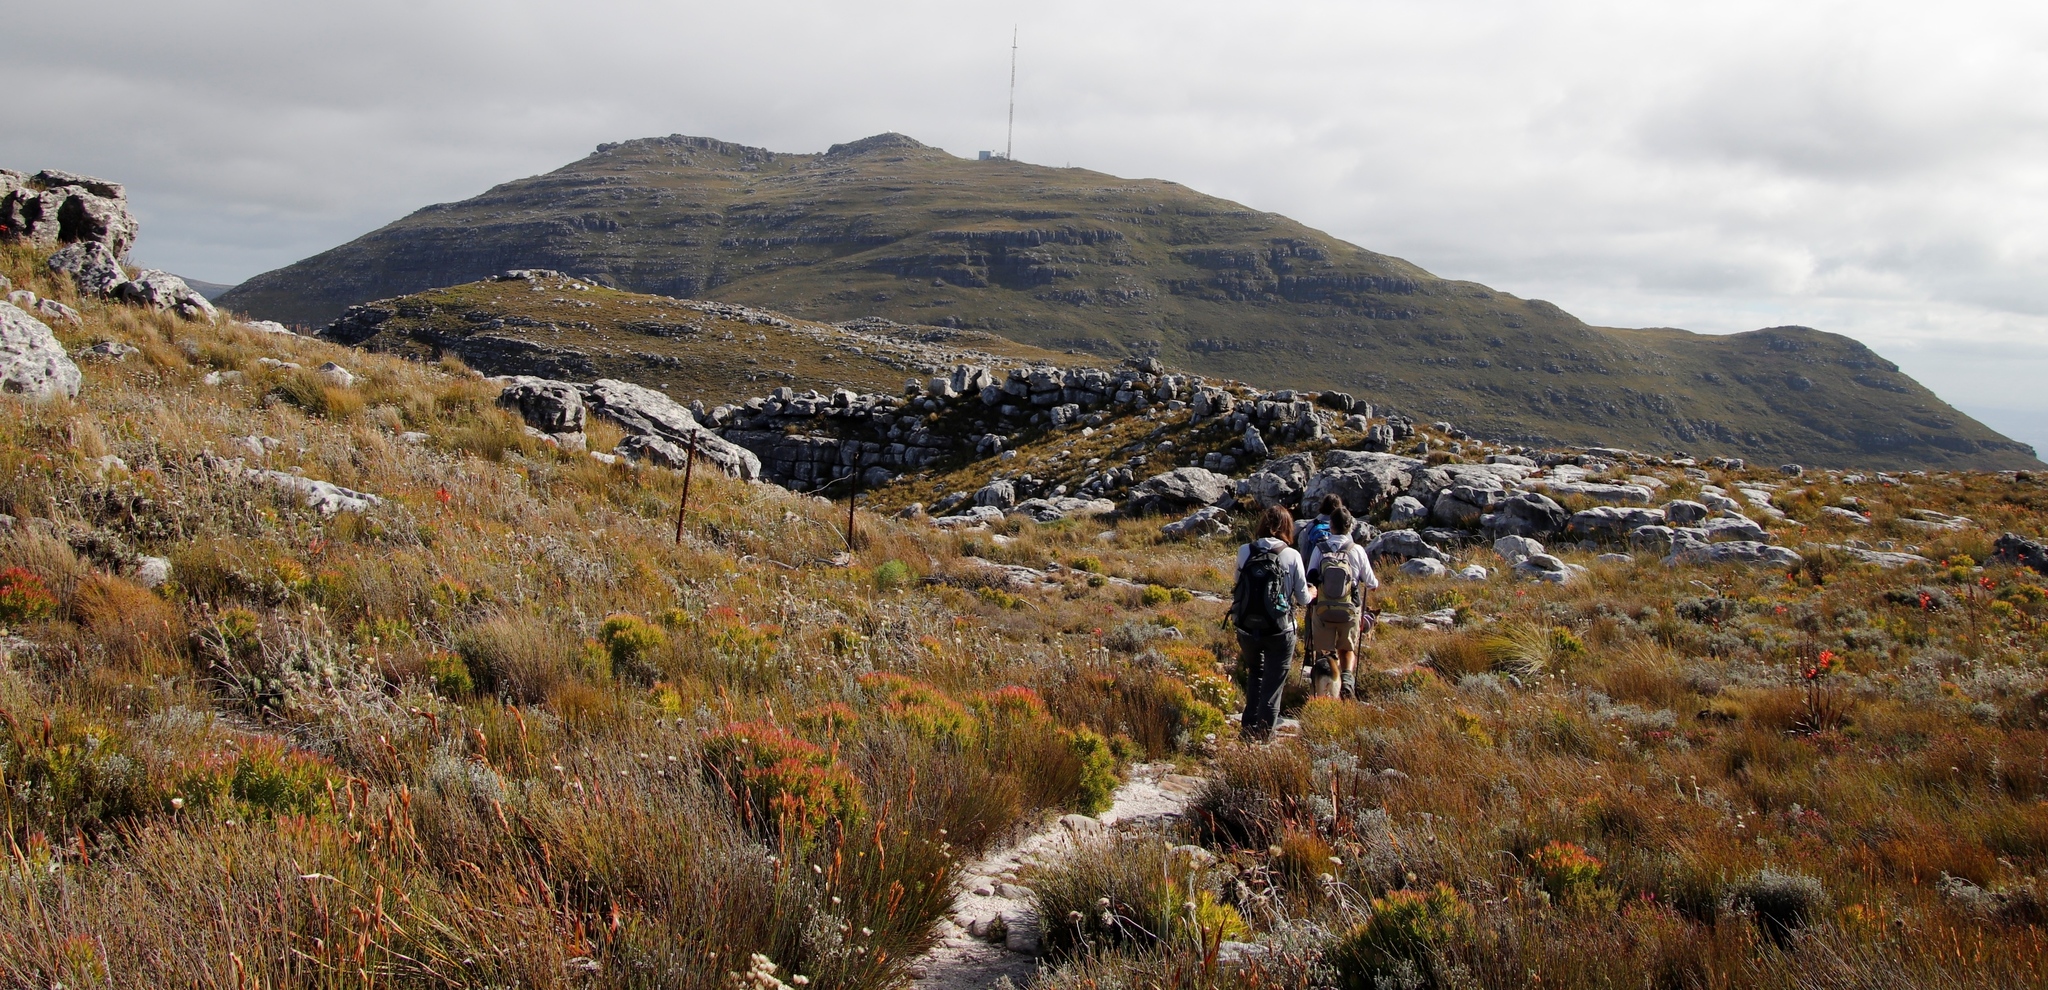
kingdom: Plantae
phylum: Tracheophyta
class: Magnoliopsida
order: Proteales
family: Proteaceae
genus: Leucadendron
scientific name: Leucadendron xanthoconus
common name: Sickle-leaf conebush
